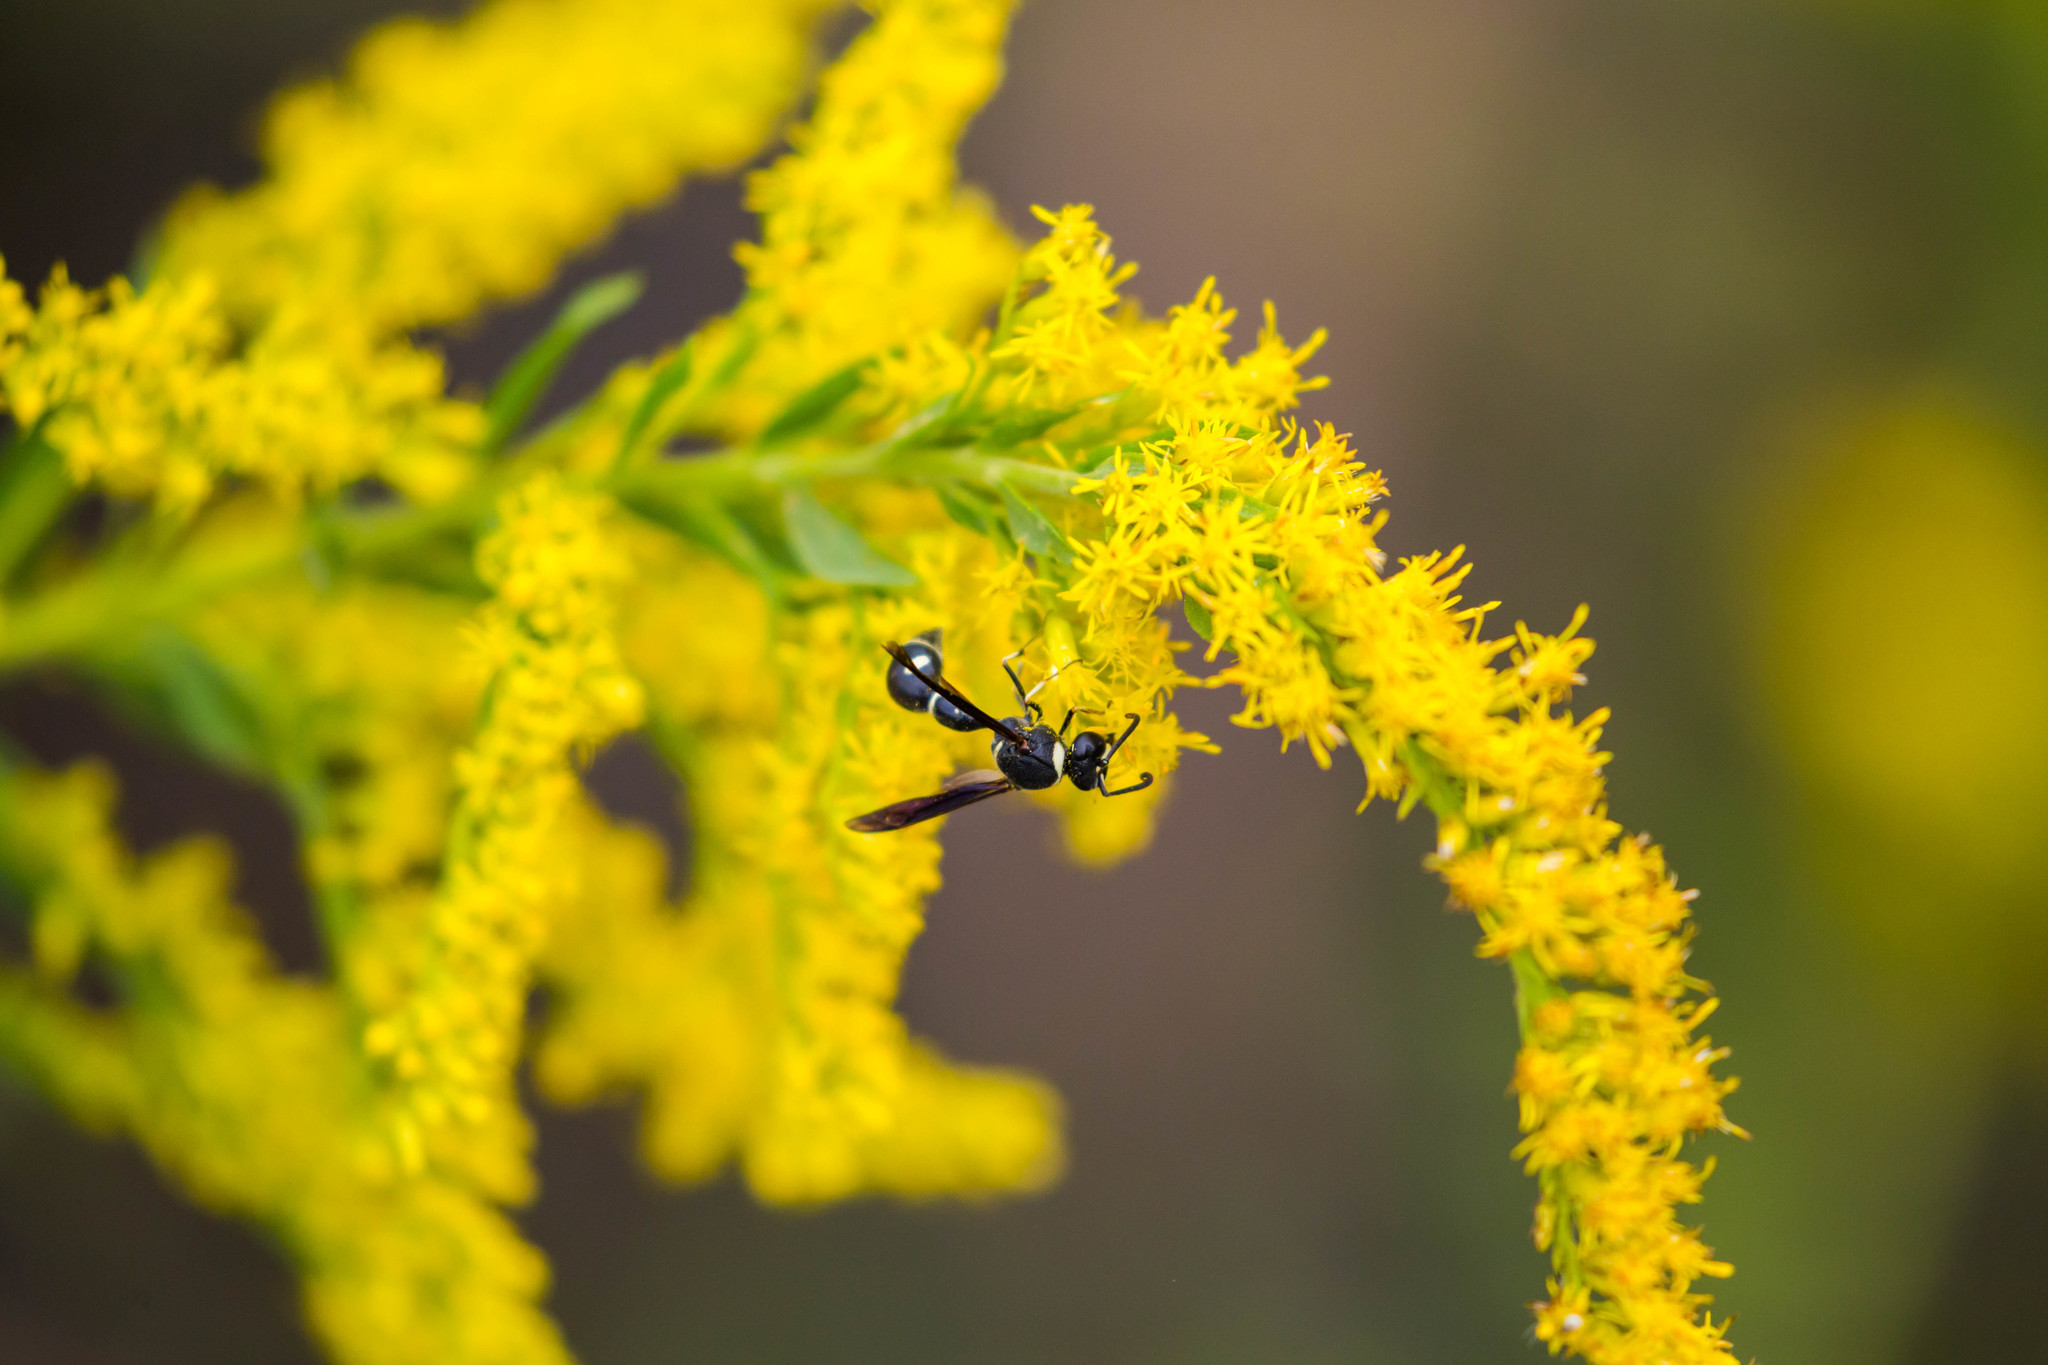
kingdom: Animalia
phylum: Arthropoda
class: Insecta
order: Hymenoptera
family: Vespidae
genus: Eumenes
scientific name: Eumenes fraternus
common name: Fraternal potter wasp
